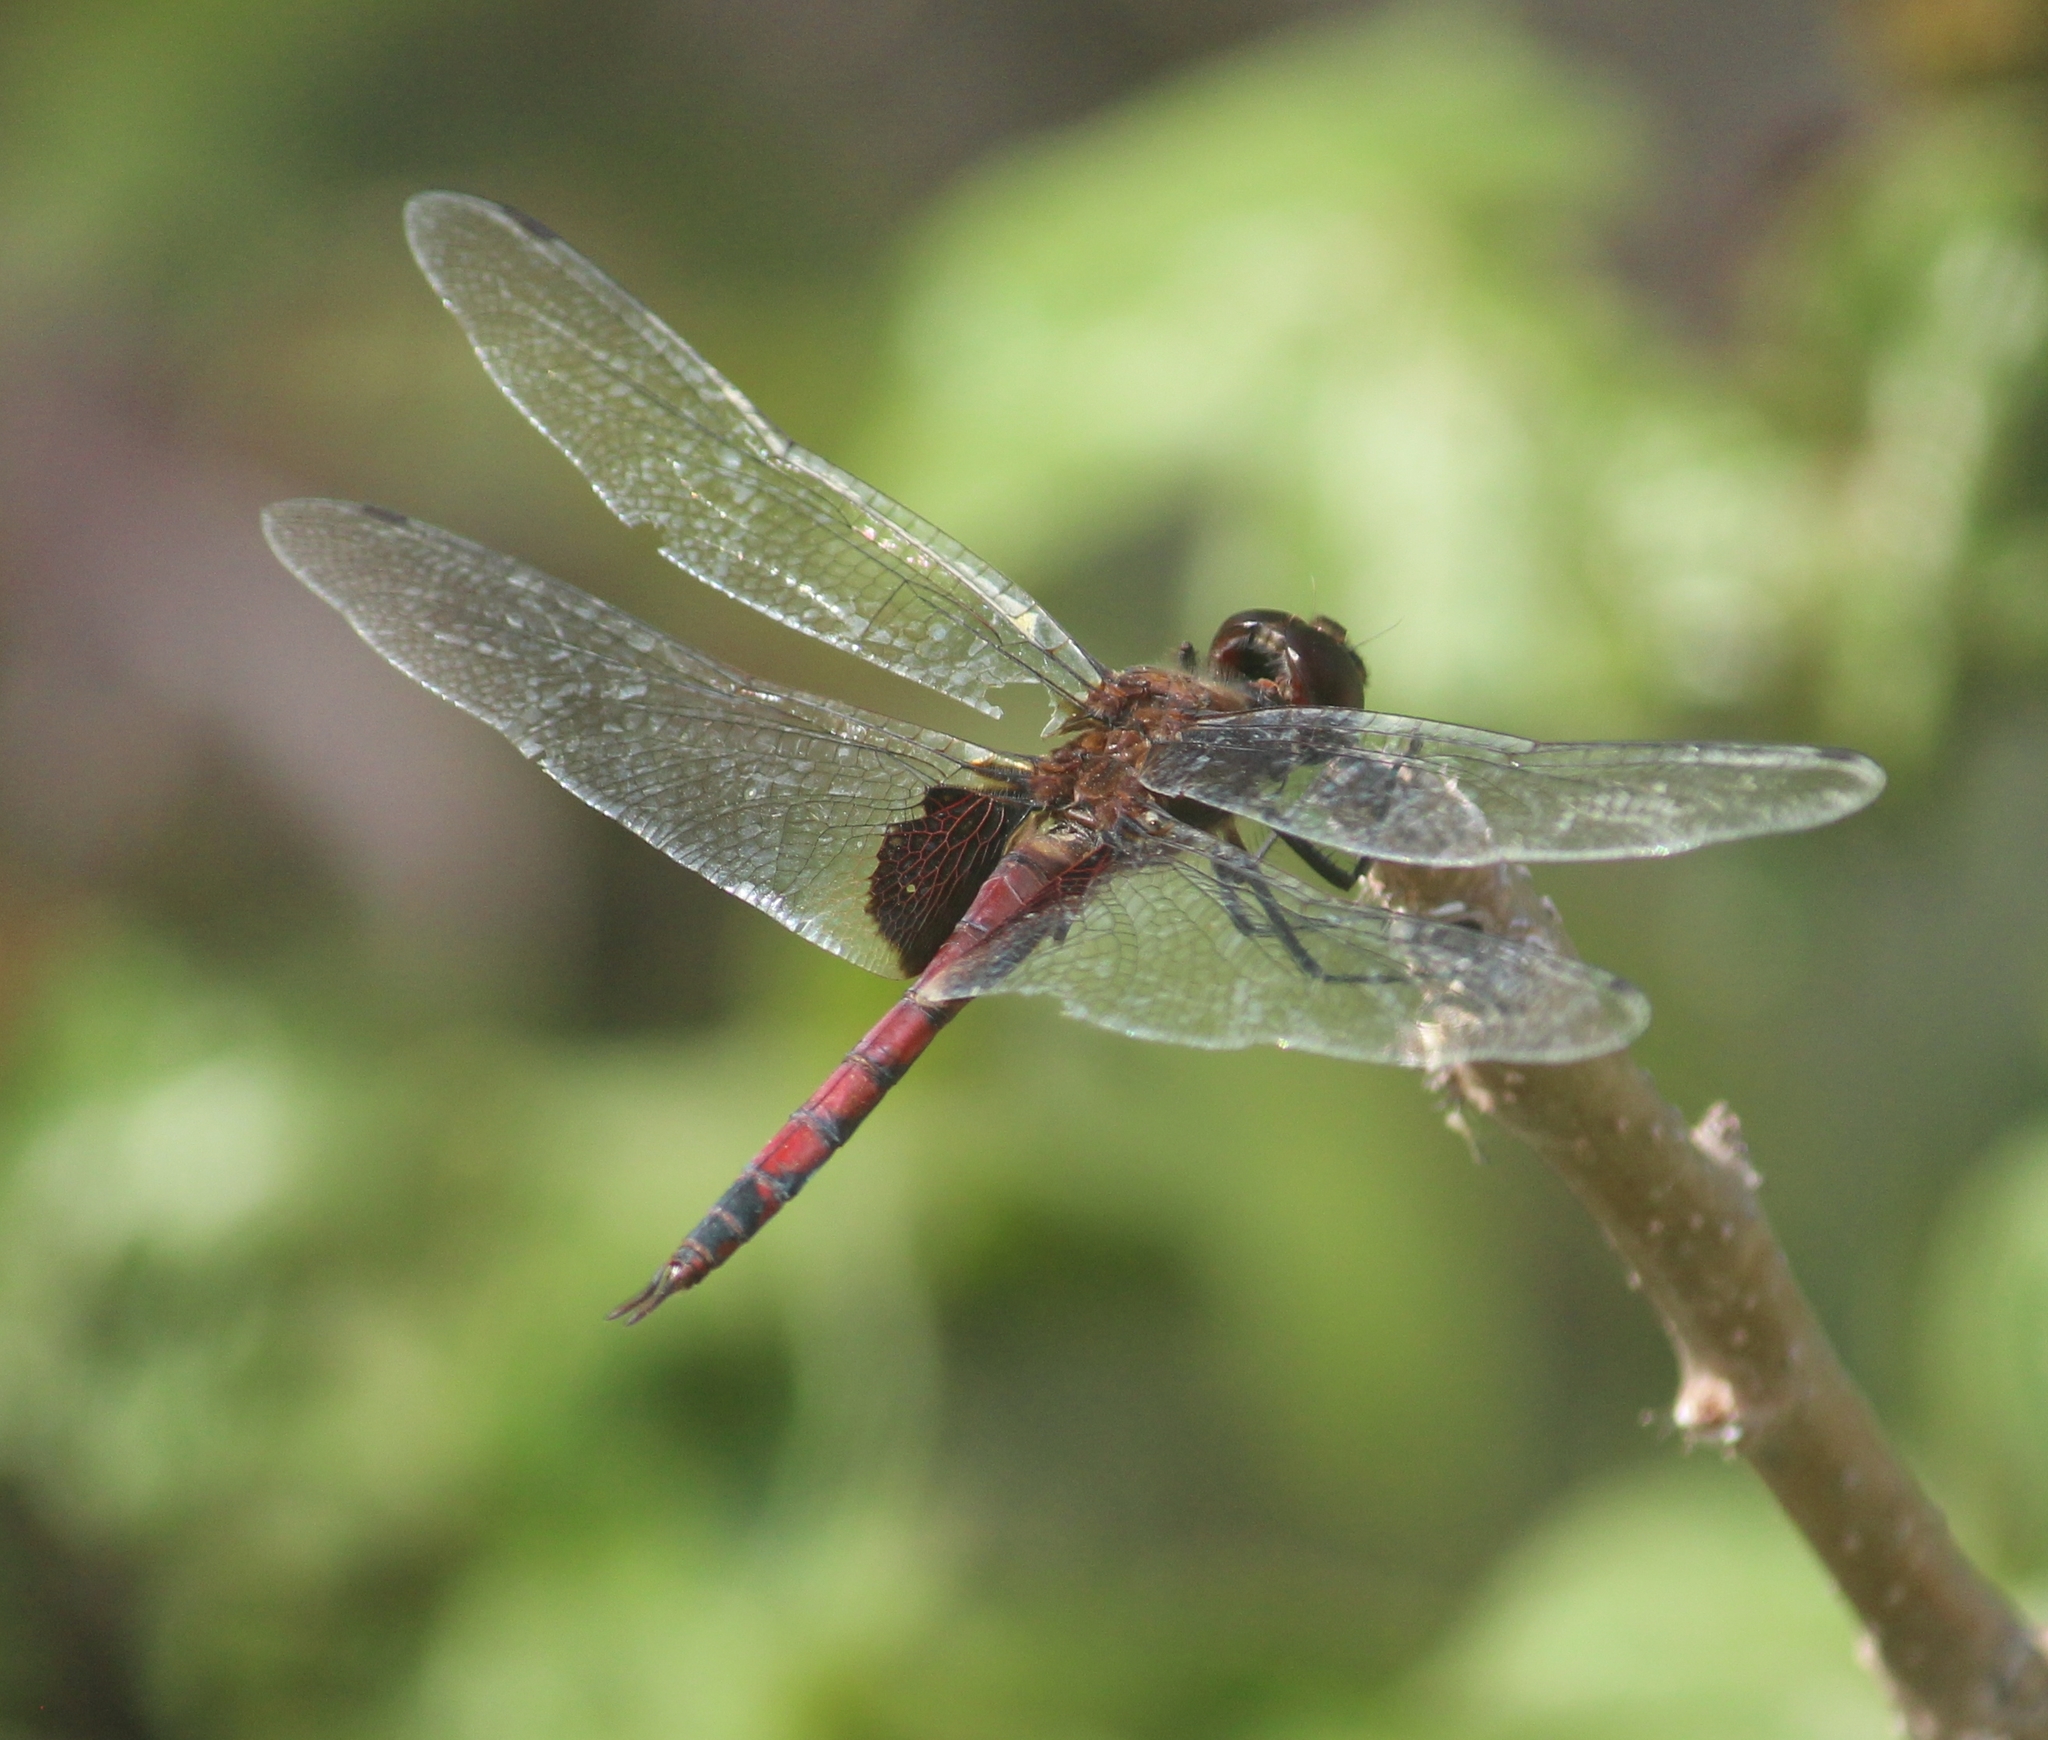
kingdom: Animalia
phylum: Arthropoda
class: Insecta
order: Odonata
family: Libellulidae
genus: Tramea
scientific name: Tramea limbata
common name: Ferruginous glider
